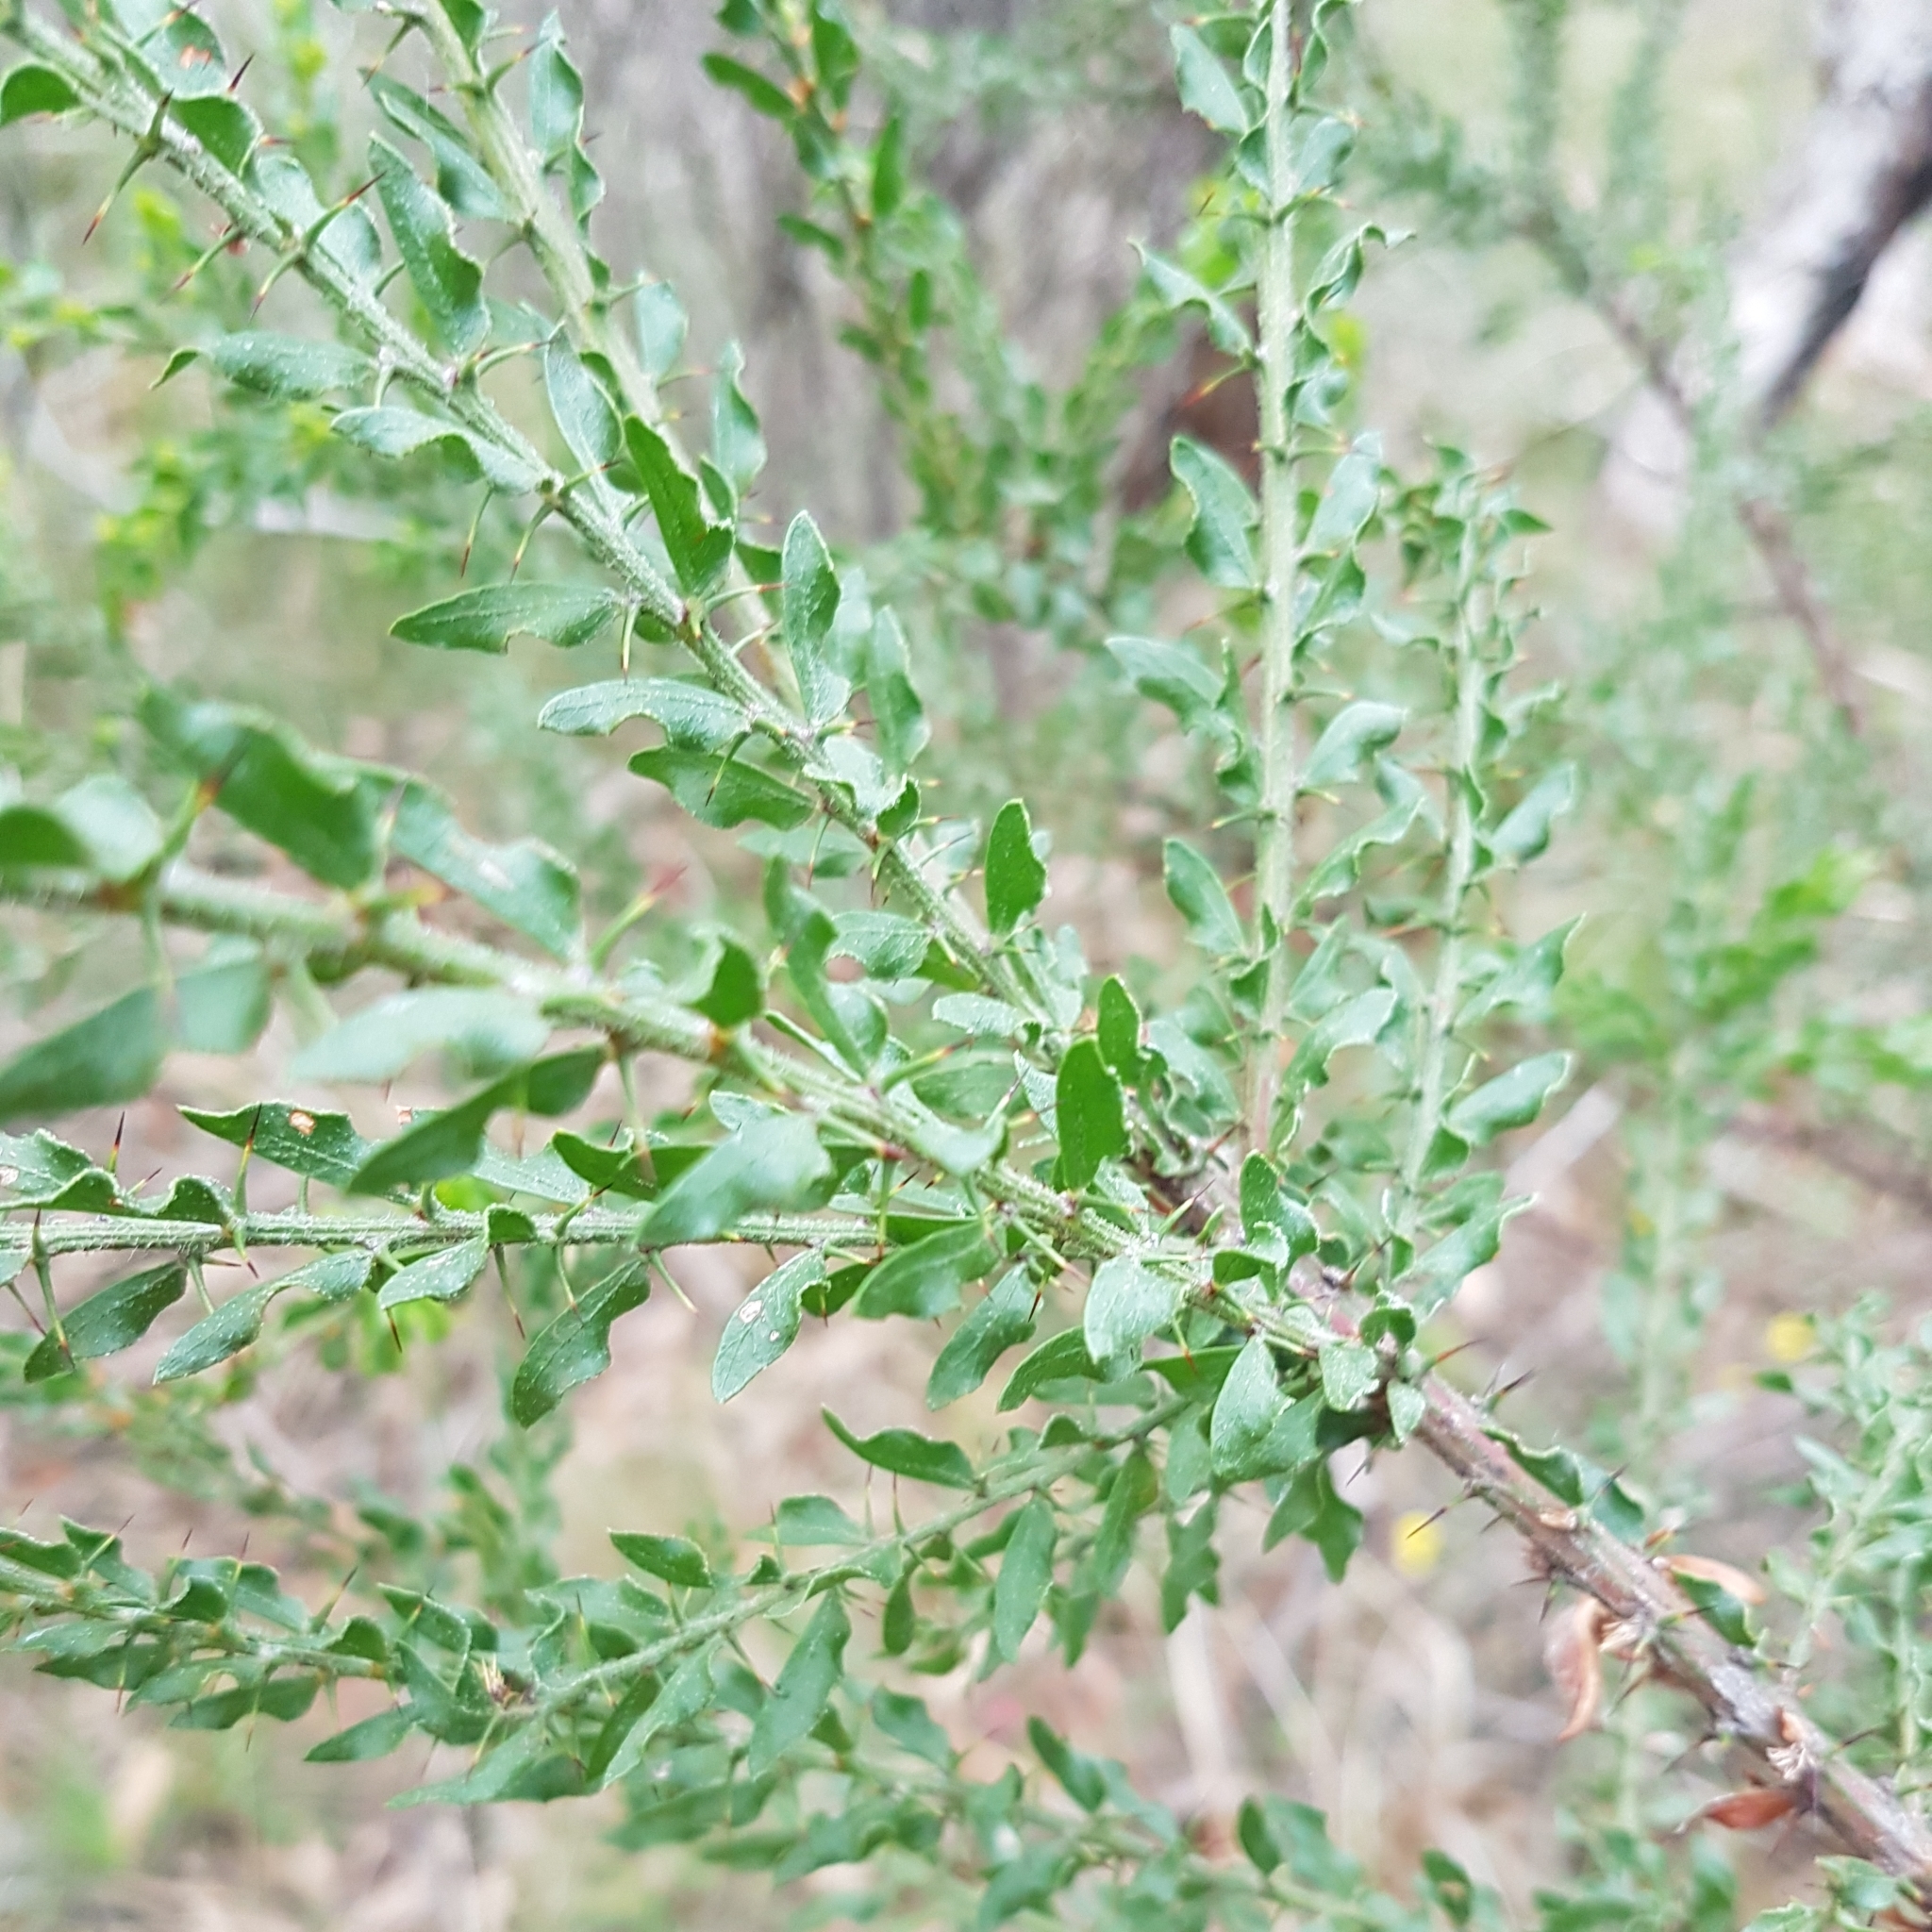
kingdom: Plantae
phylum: Tracheophyta
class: Magnoliopsida
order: Fabales
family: Fabaceae
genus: Acacia
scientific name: Acacia paradoxa
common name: Paradox acacia
